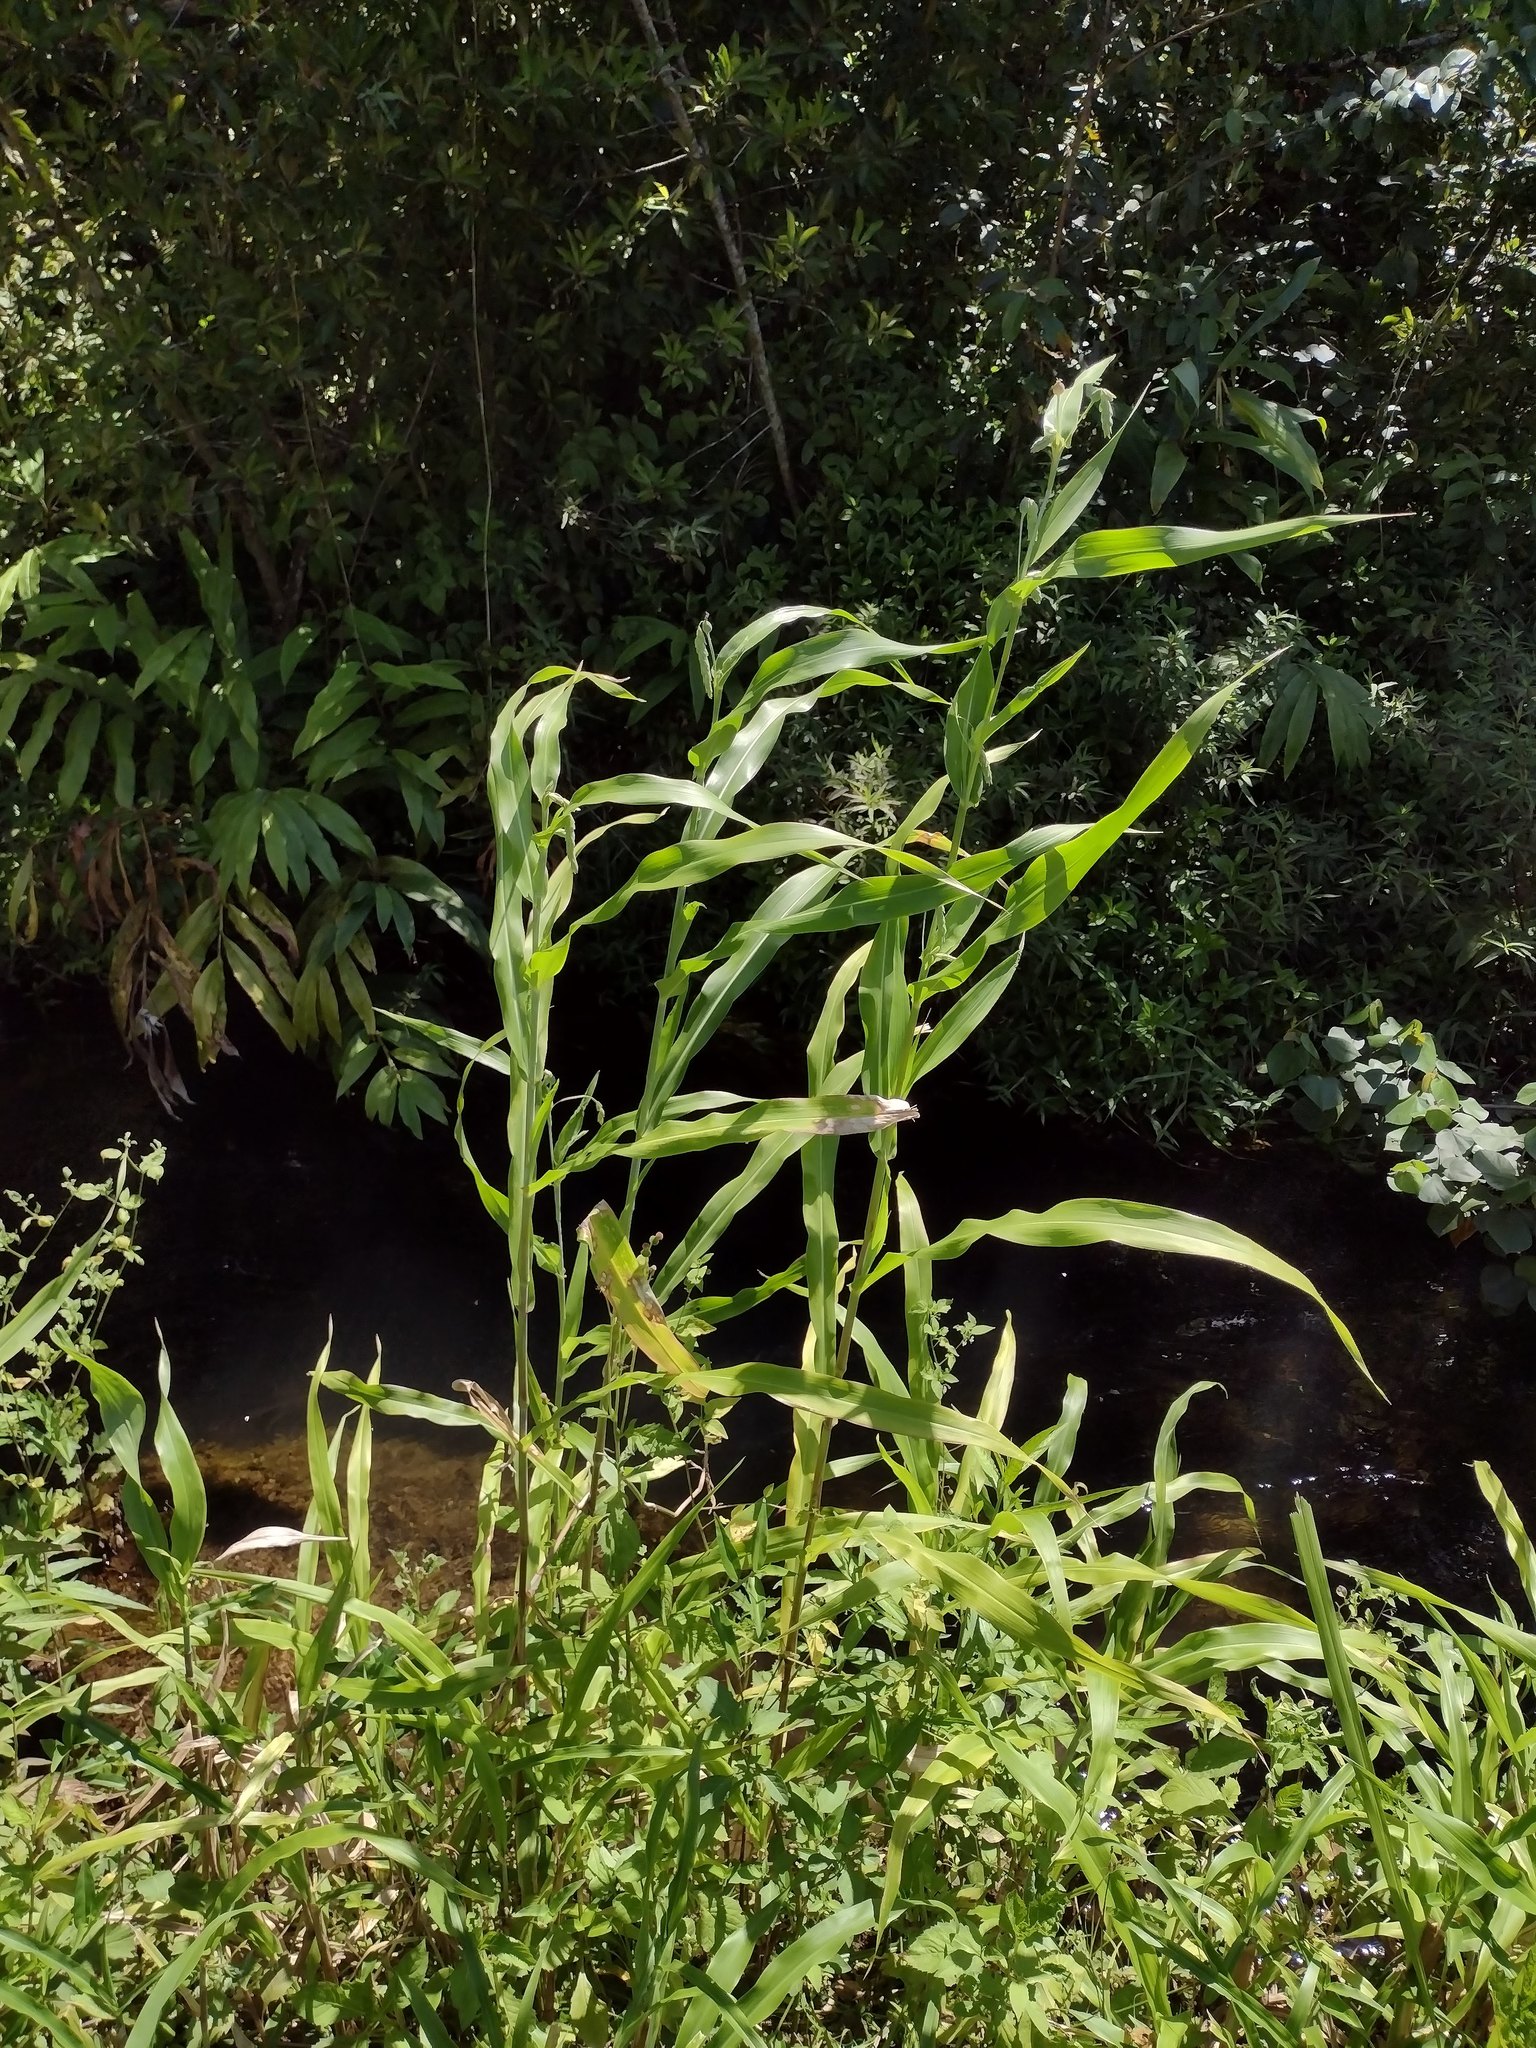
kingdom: Plantae
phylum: Tracheophyta
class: Liliopsida
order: Poales
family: Poaceae
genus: Coix
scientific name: Coix lacryma-jobi
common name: Job's tears
